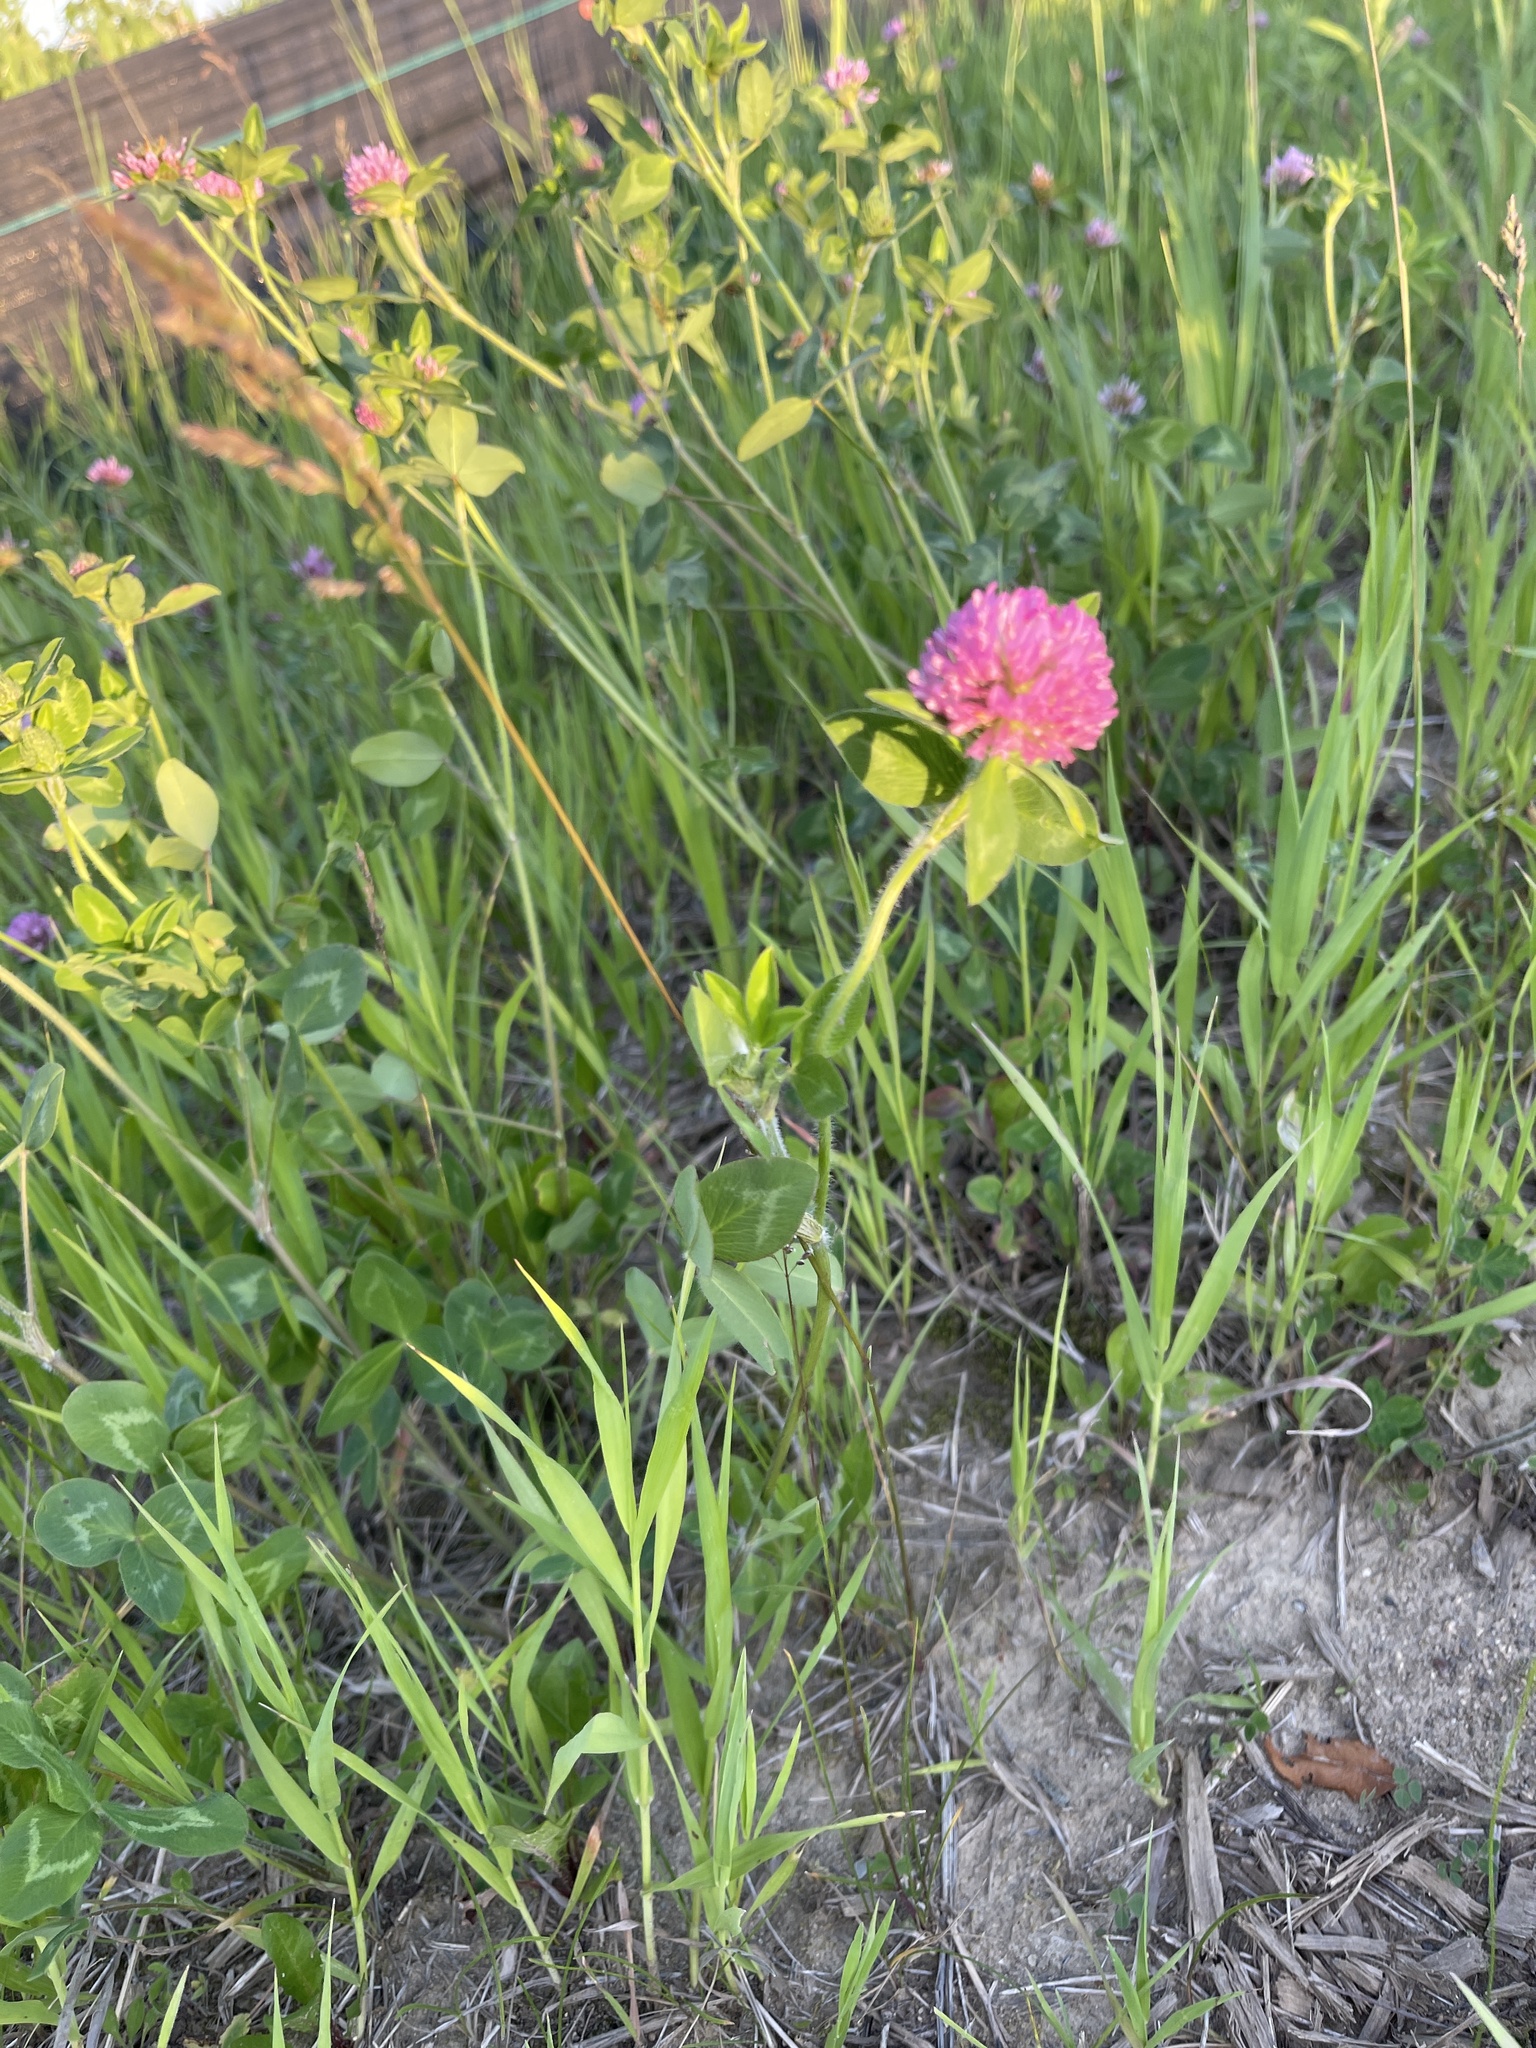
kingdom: Plantae
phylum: Tracheophyta
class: Magnoliopsida
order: Fabales
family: Fabaceae
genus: Trifolium
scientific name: Trifolium pratense
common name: Red clover
